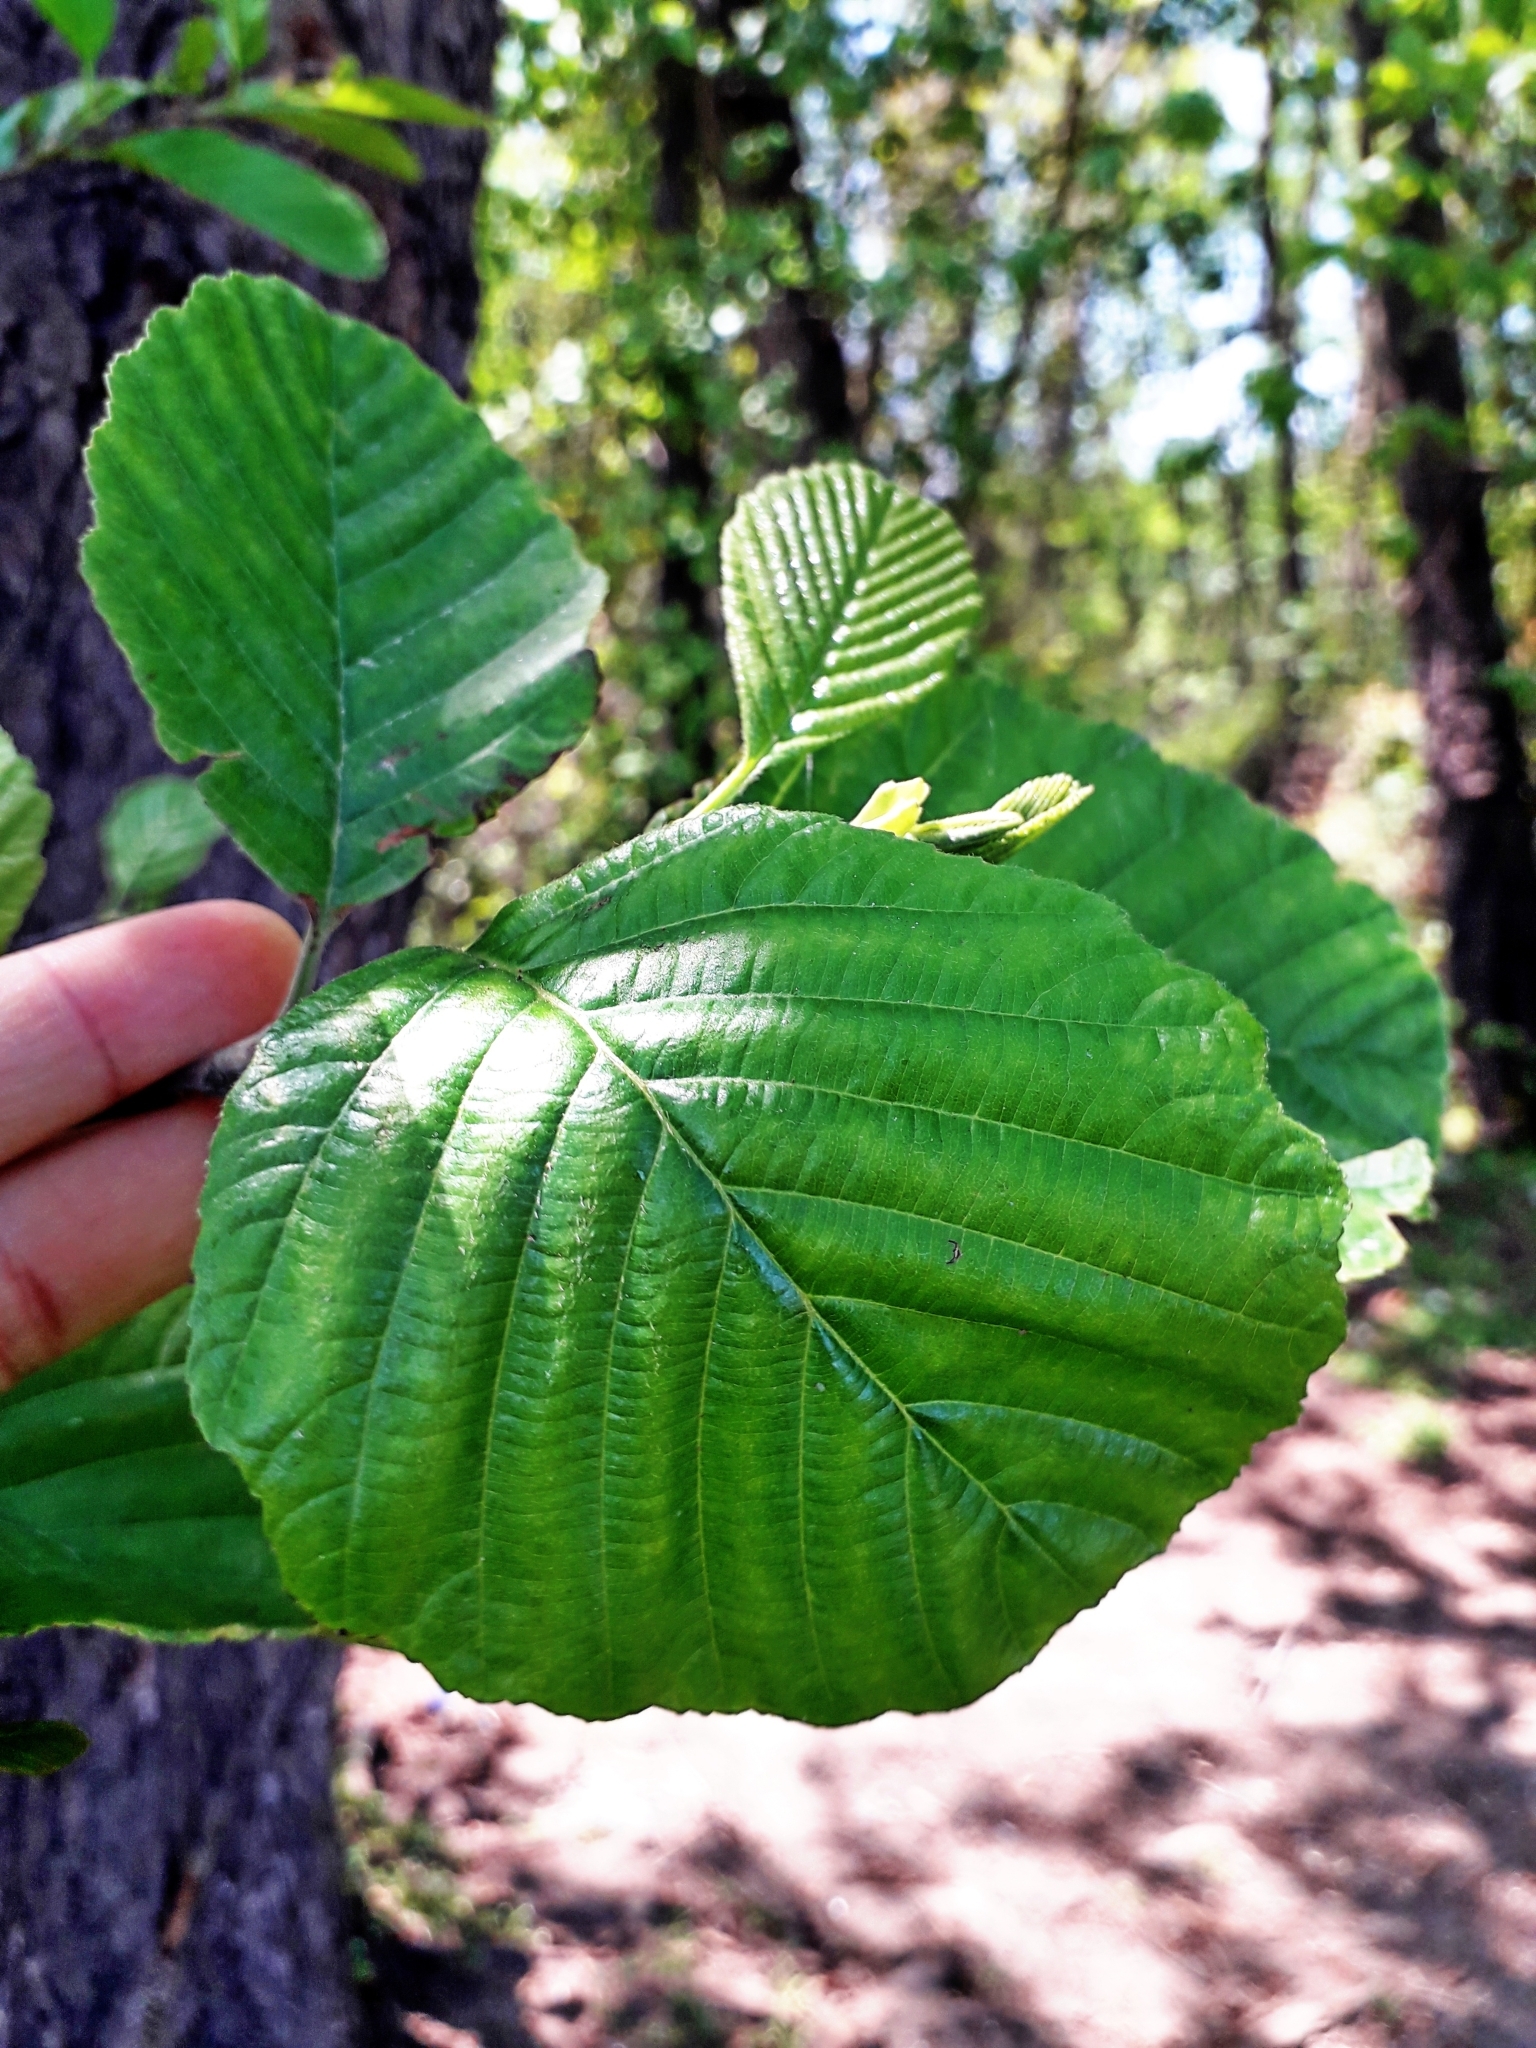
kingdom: Plantae
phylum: Tracheophyta
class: Magnoliopsida
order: Fagales
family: Betulaceae
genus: Alnus
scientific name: Alnus glutinosa
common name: Black alder
